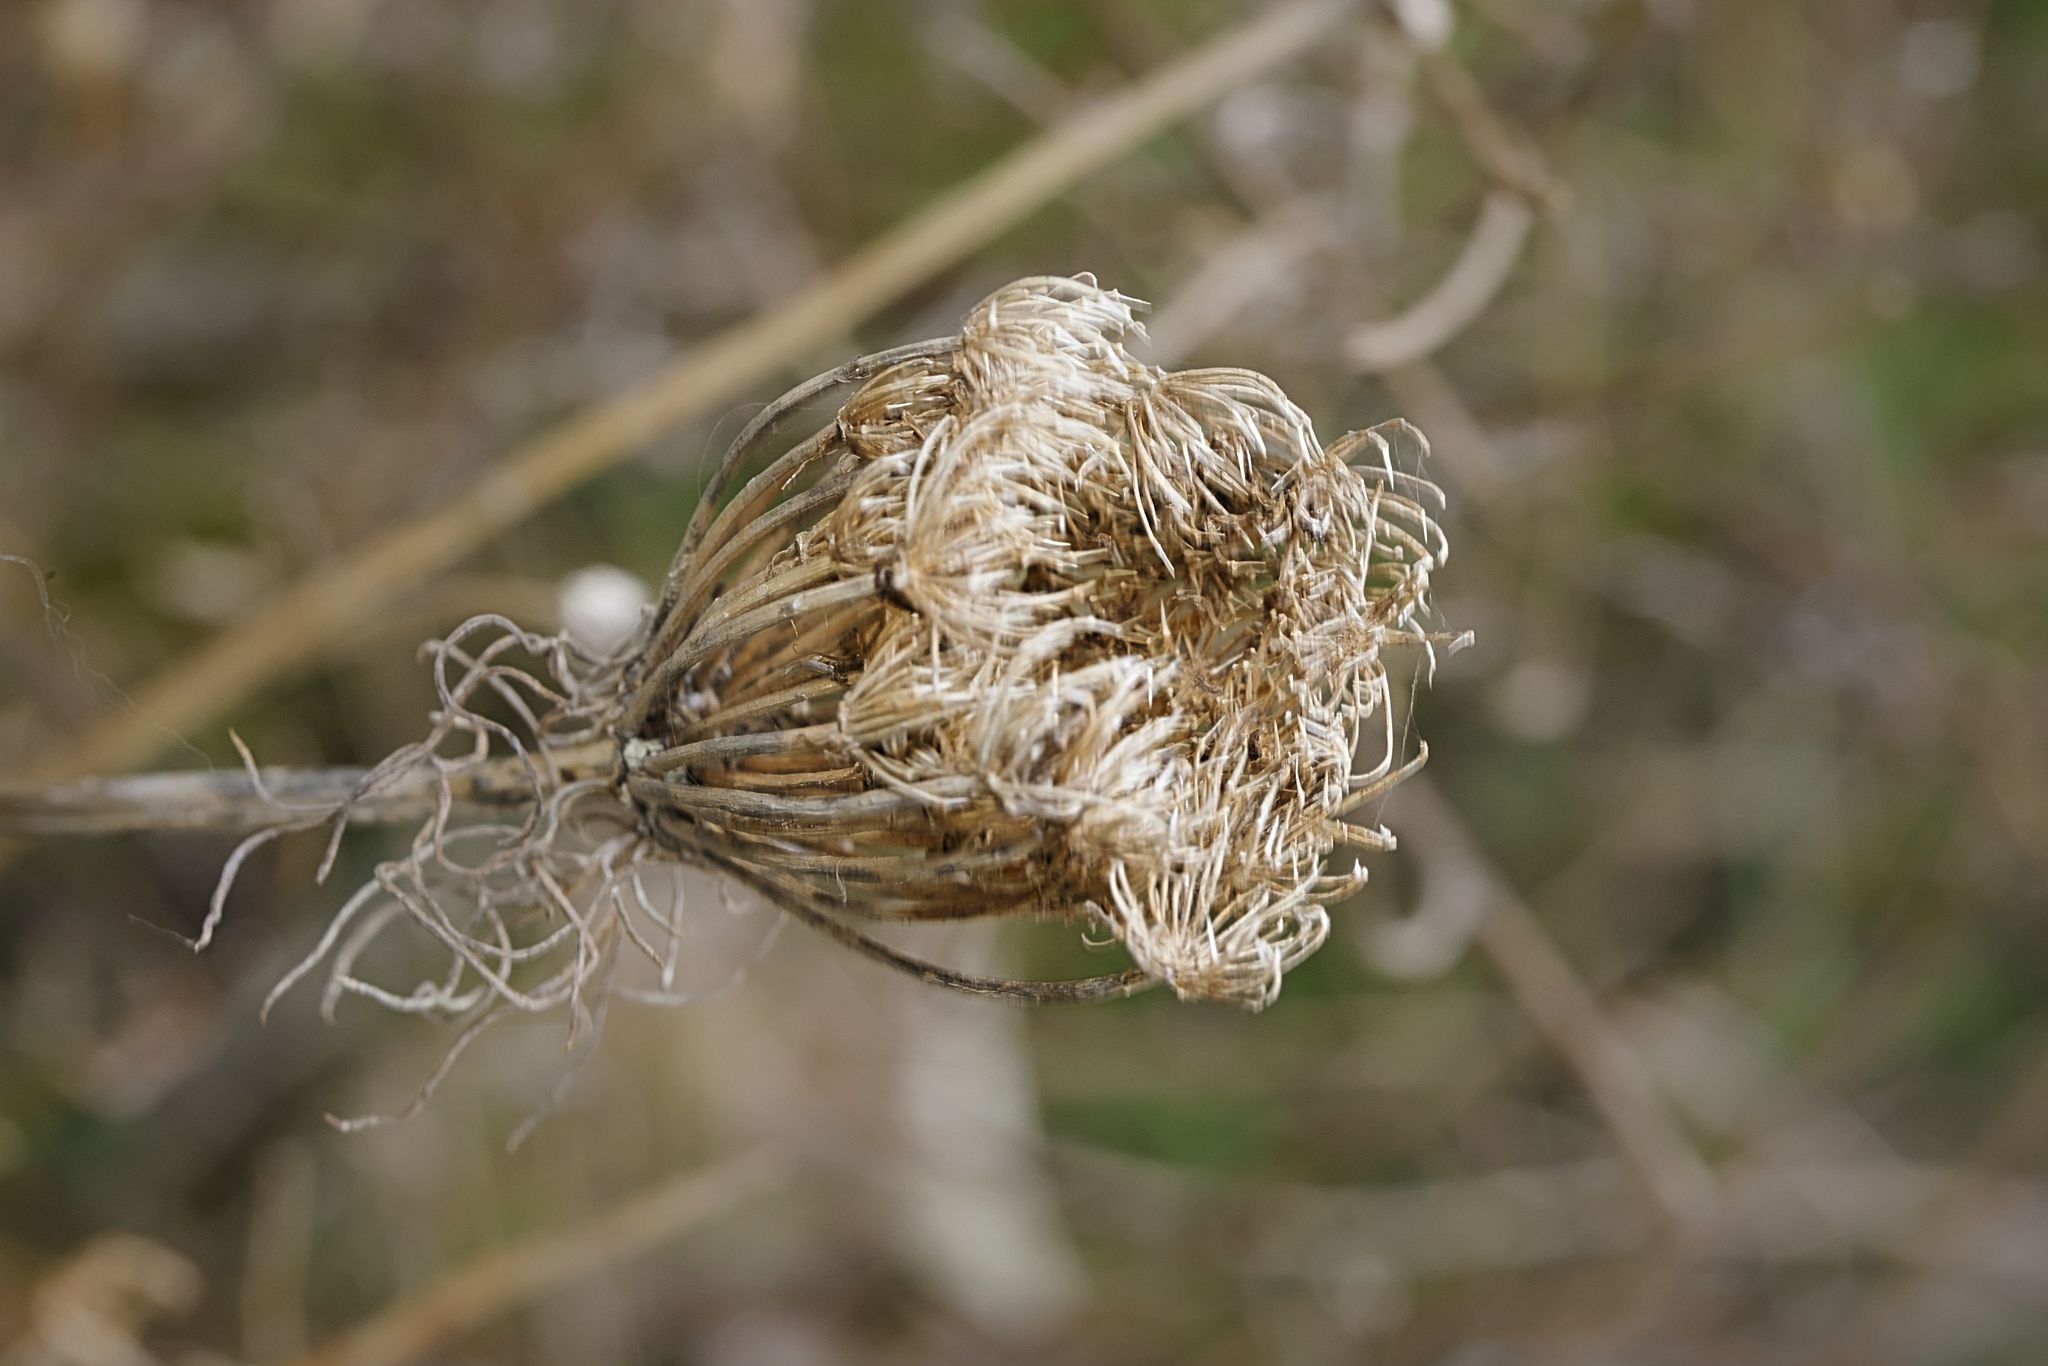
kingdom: Plantae
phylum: Tracheophyta
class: Magnoliopsida
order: Apiales
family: Apiaceae
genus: Daucus
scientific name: Daucus carota
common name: Wild carrot
